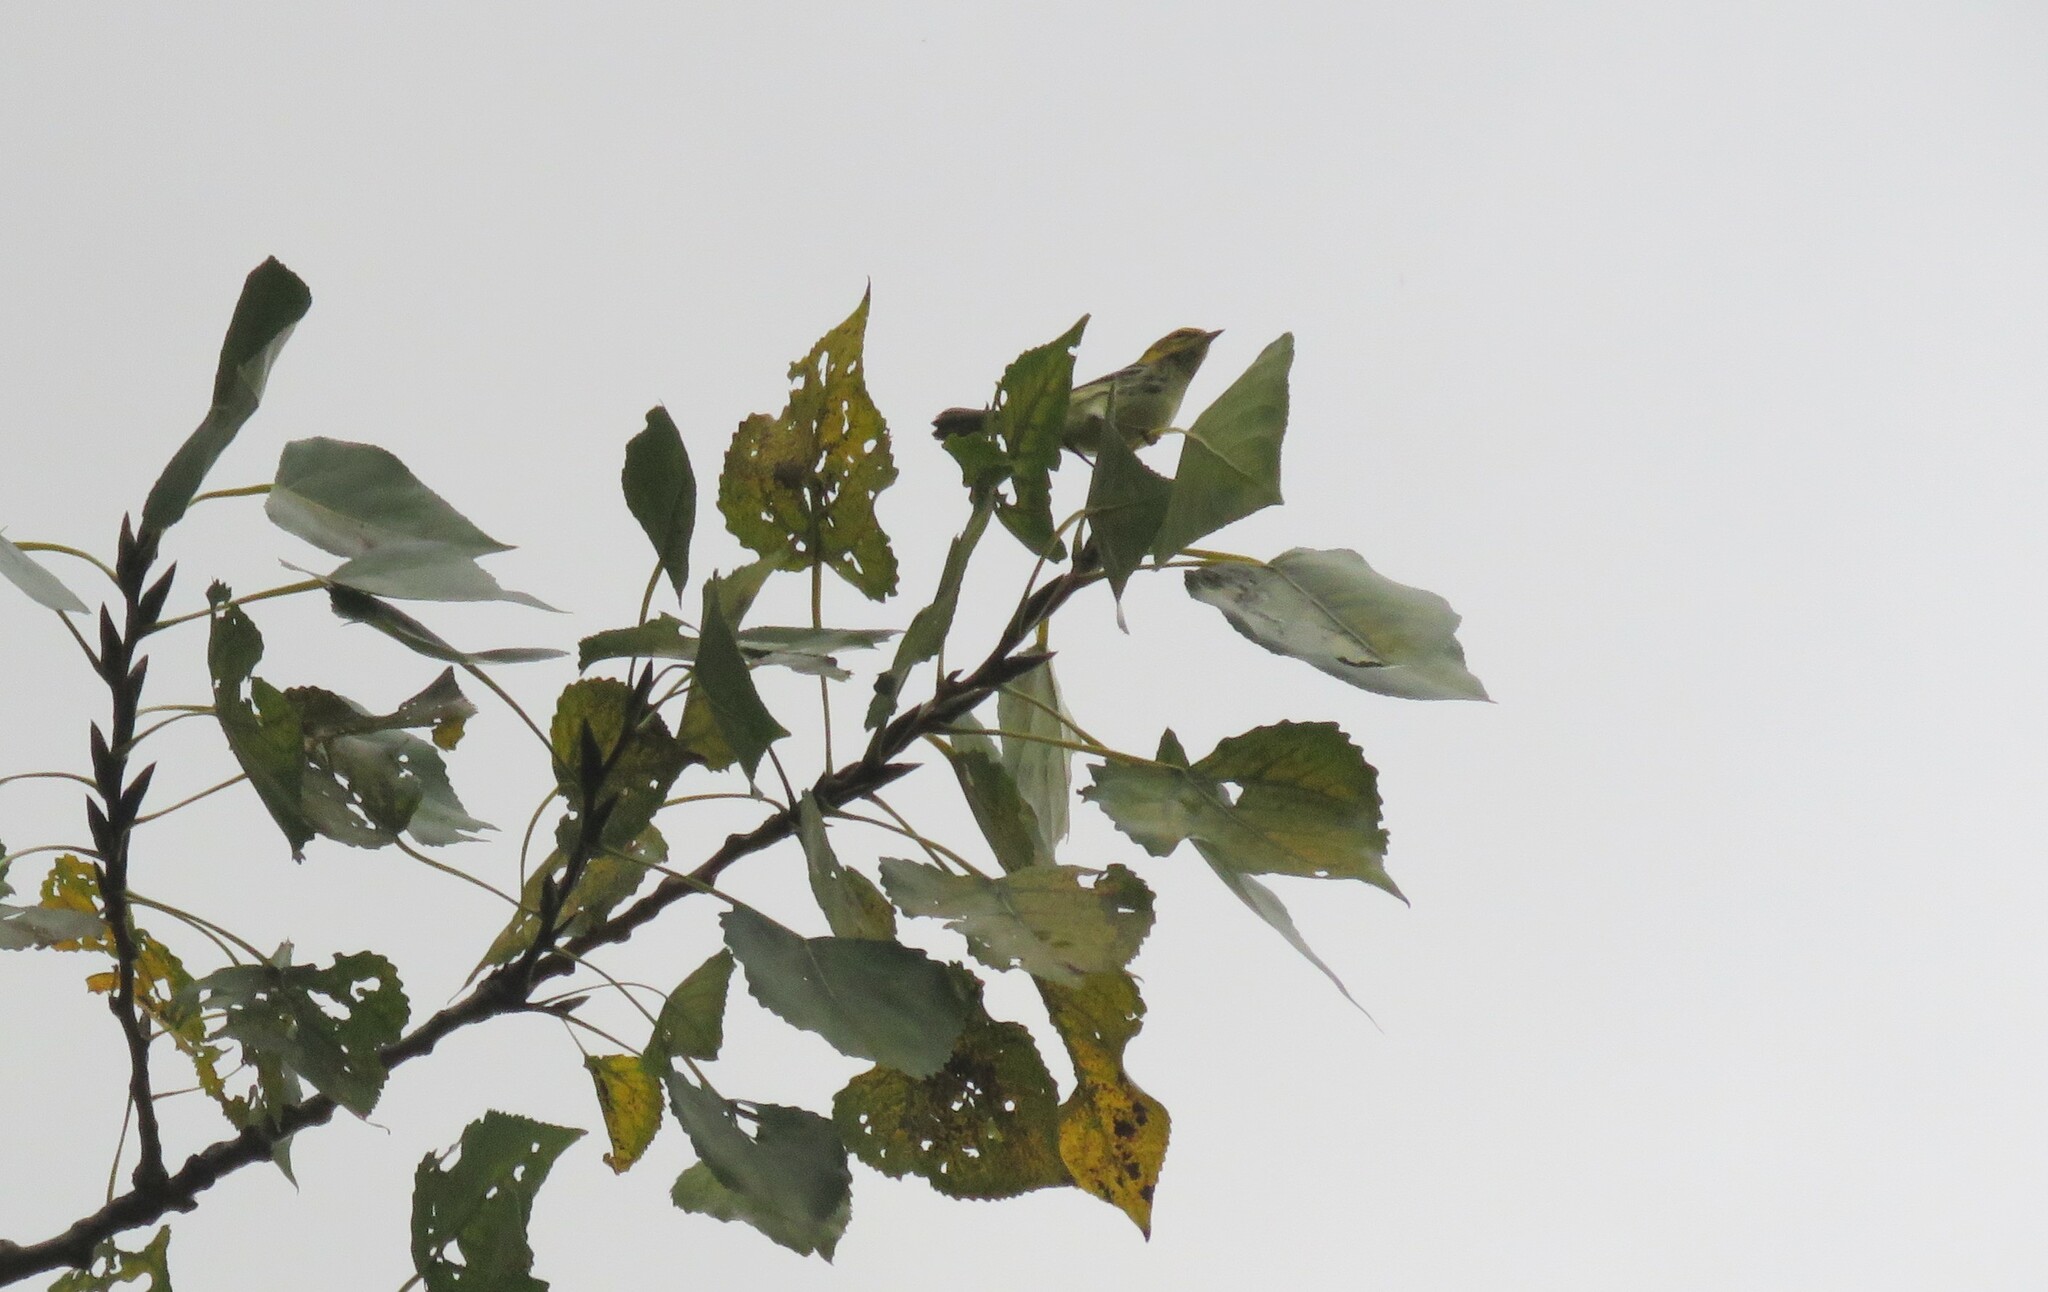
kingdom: Animalia
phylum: Chordata
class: Aves
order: Passeriformes
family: Parulidae
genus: Setophaga
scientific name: Setophaga virens
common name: Black-throated green warbler
